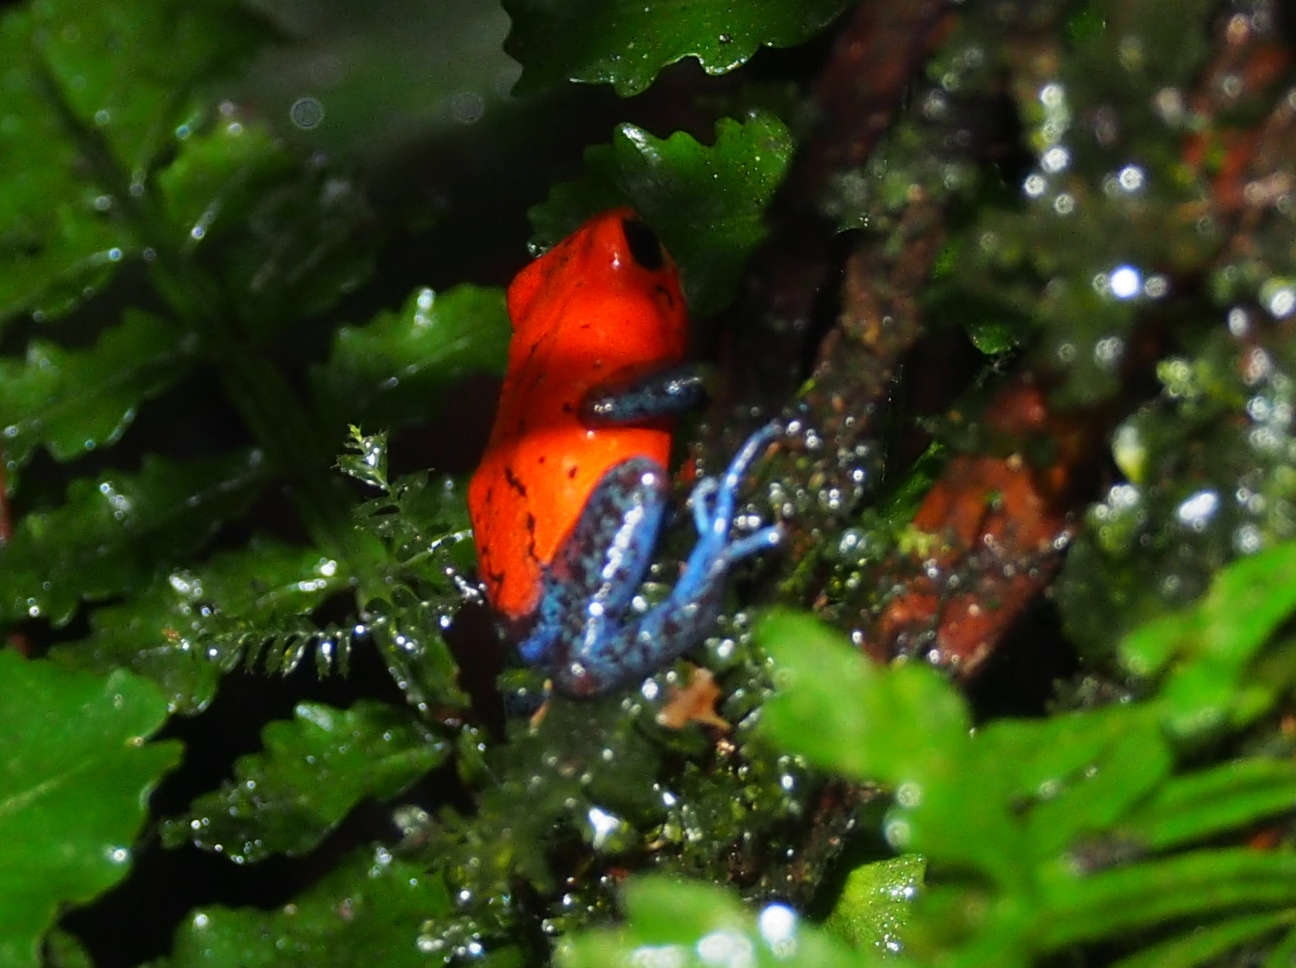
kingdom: Animalia
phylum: Chordata
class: Amphibia
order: Anura
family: Dendrobatidae
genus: Oophaga
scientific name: Oophaga pumilio
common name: Flaming poison frog
